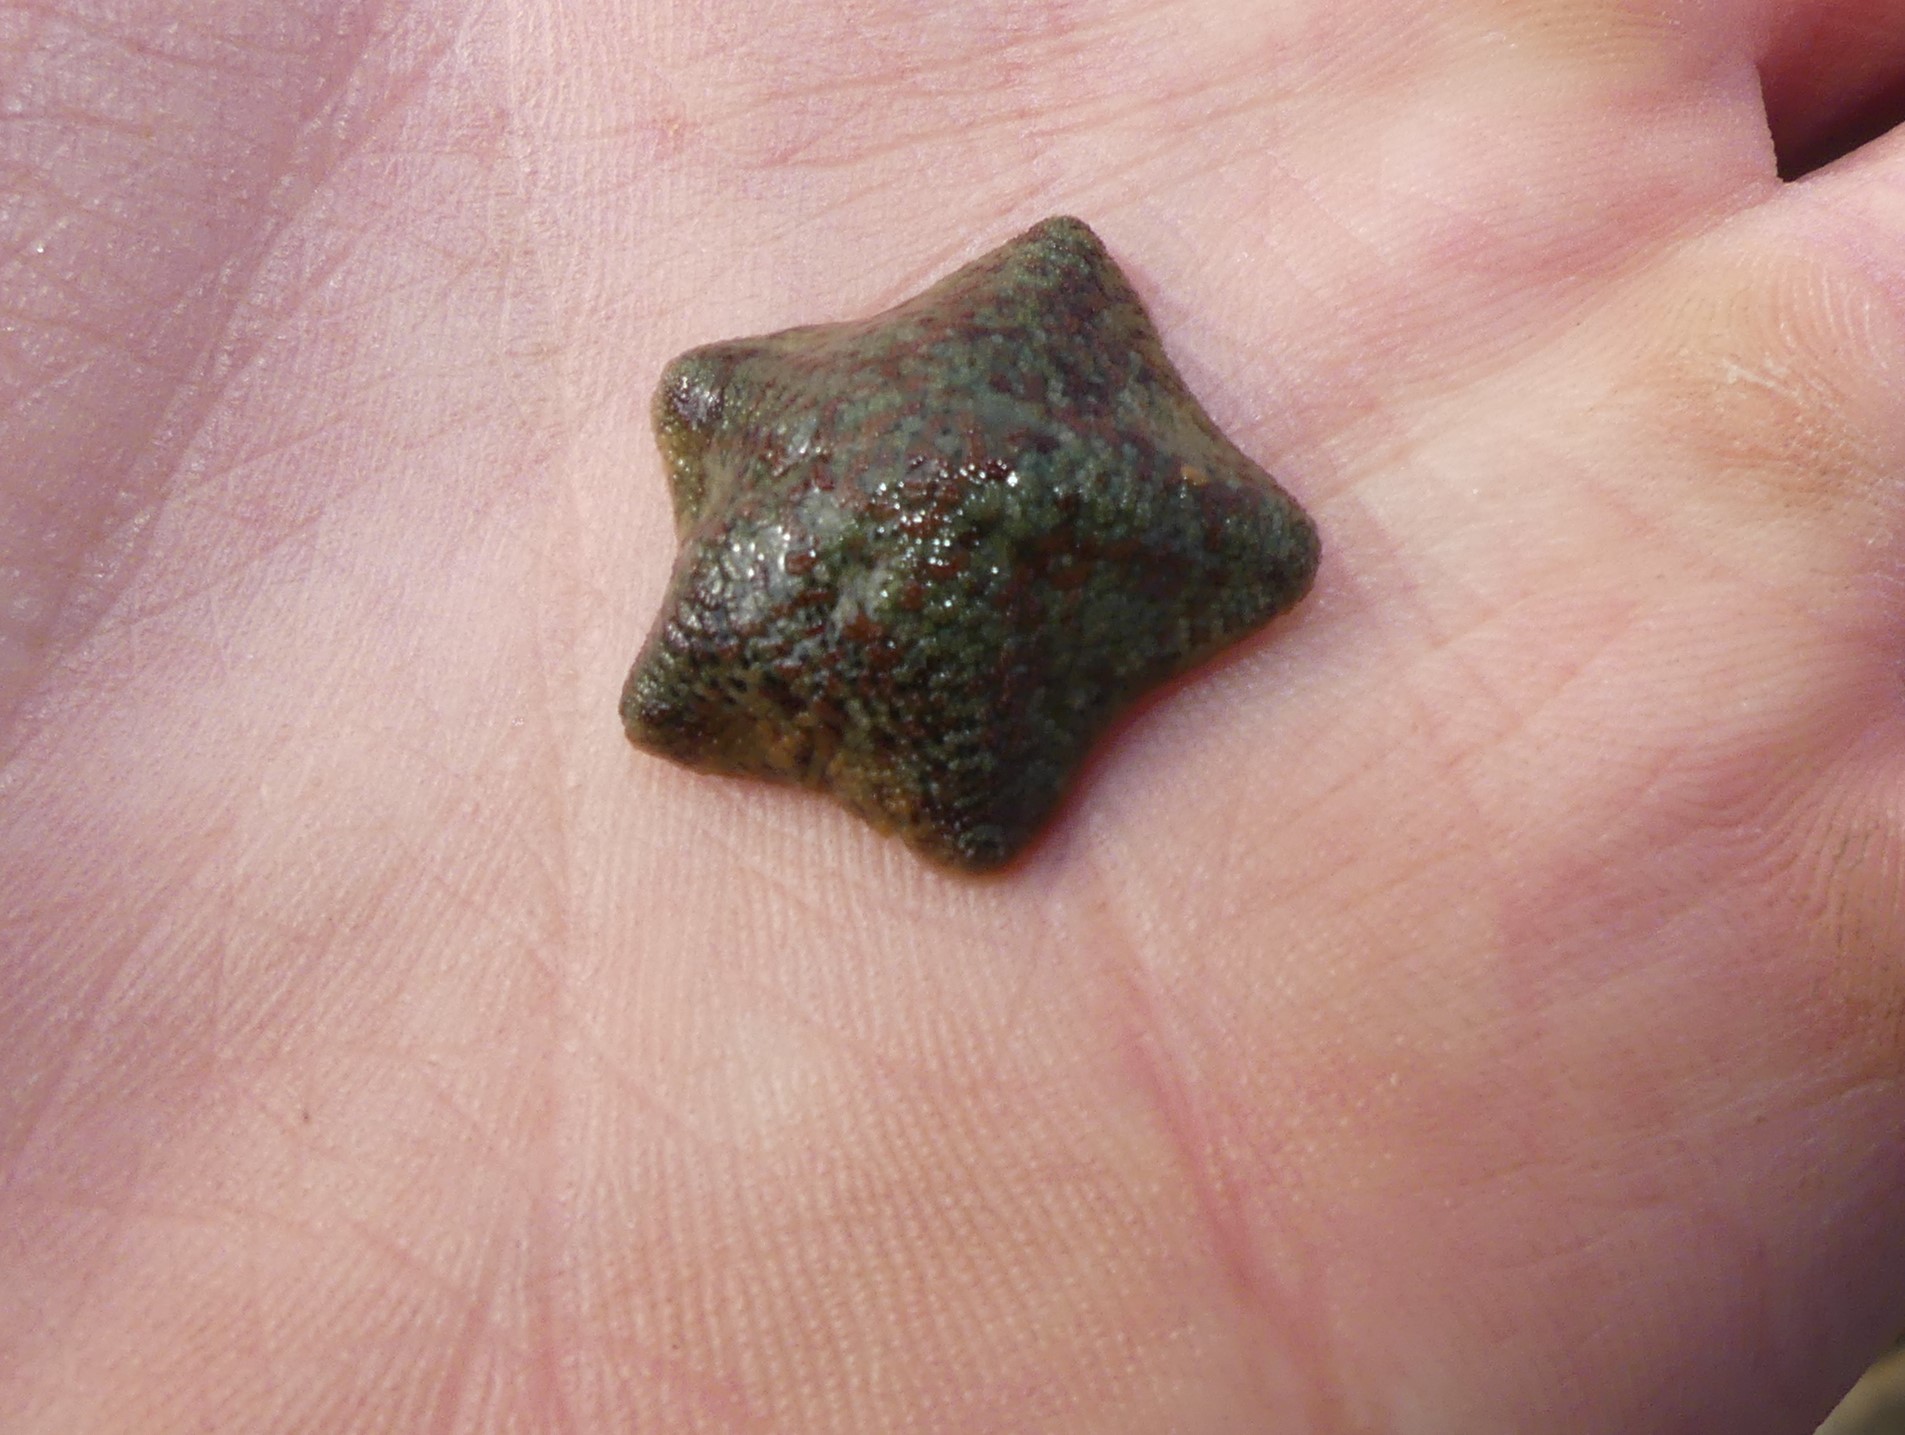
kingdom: Animalia
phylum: Echinodermata
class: Asteroidea
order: Valvatida
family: Asterinidae
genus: Parvulastra
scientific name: Parvulastra exigua
